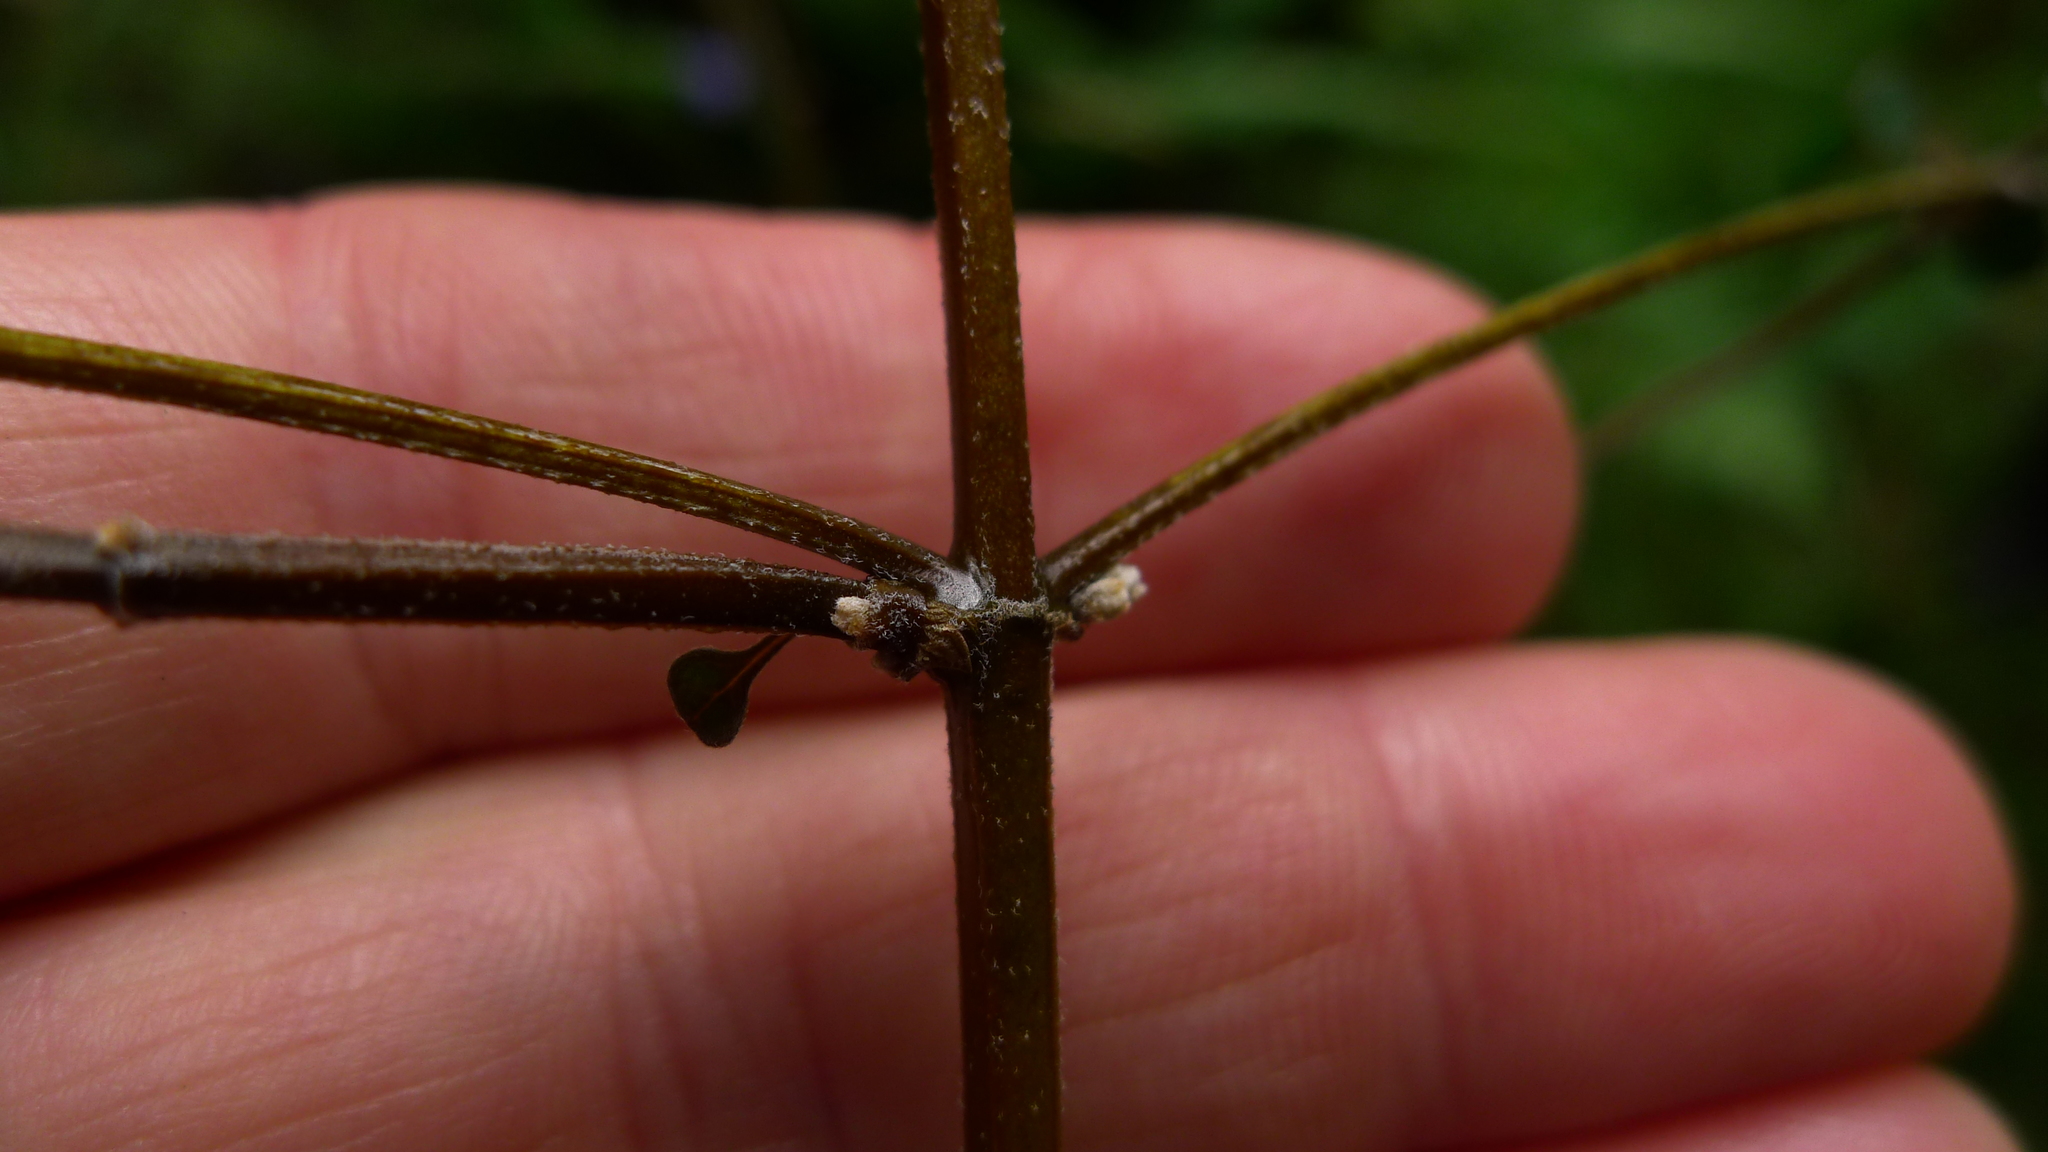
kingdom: Plantae
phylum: Tracheophyta
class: Magnoliopsida
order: Lamiales
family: Lamiaceae
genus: Teucrium
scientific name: Teucrium parvifolium
